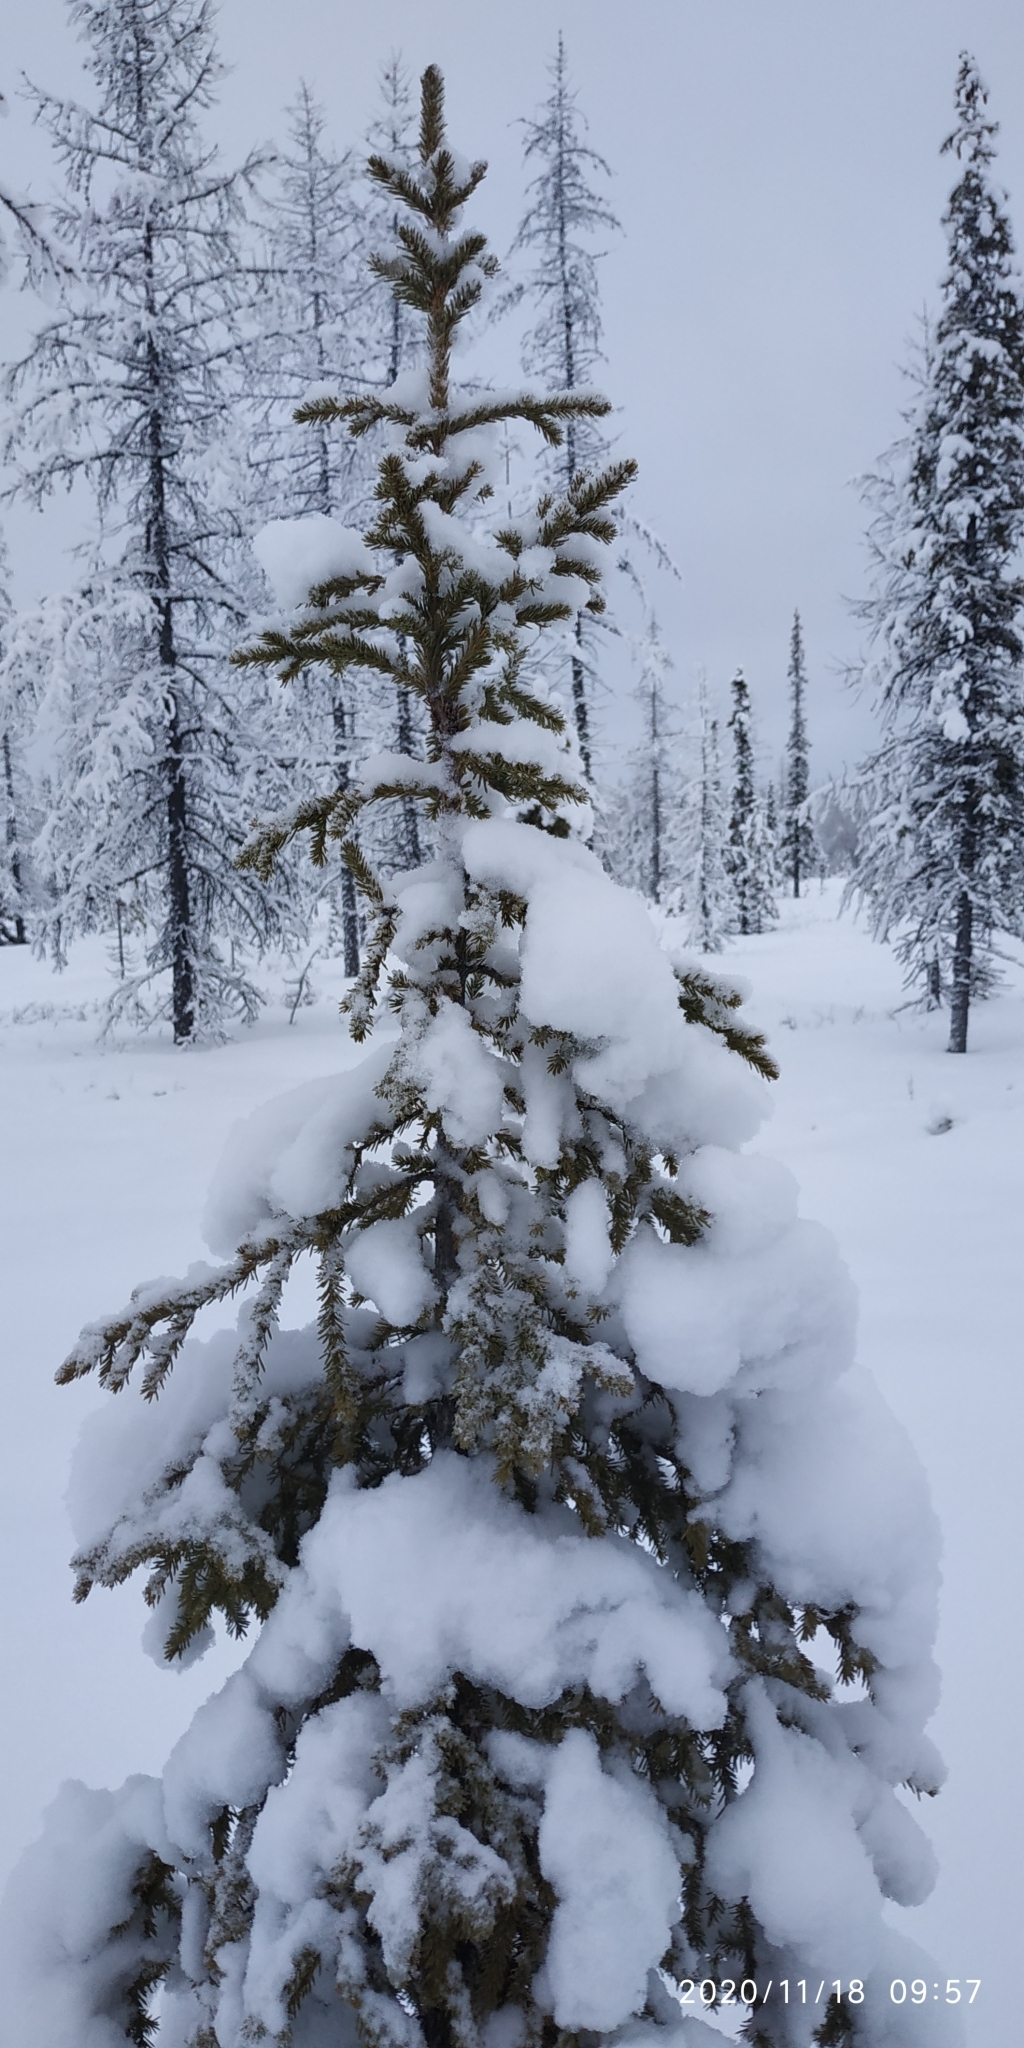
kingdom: Plantae
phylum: Tracheophyta
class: Pinopsida
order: Pinales
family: Pinaceae
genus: Picea
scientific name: Picea obovata
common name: Siberian spruce
